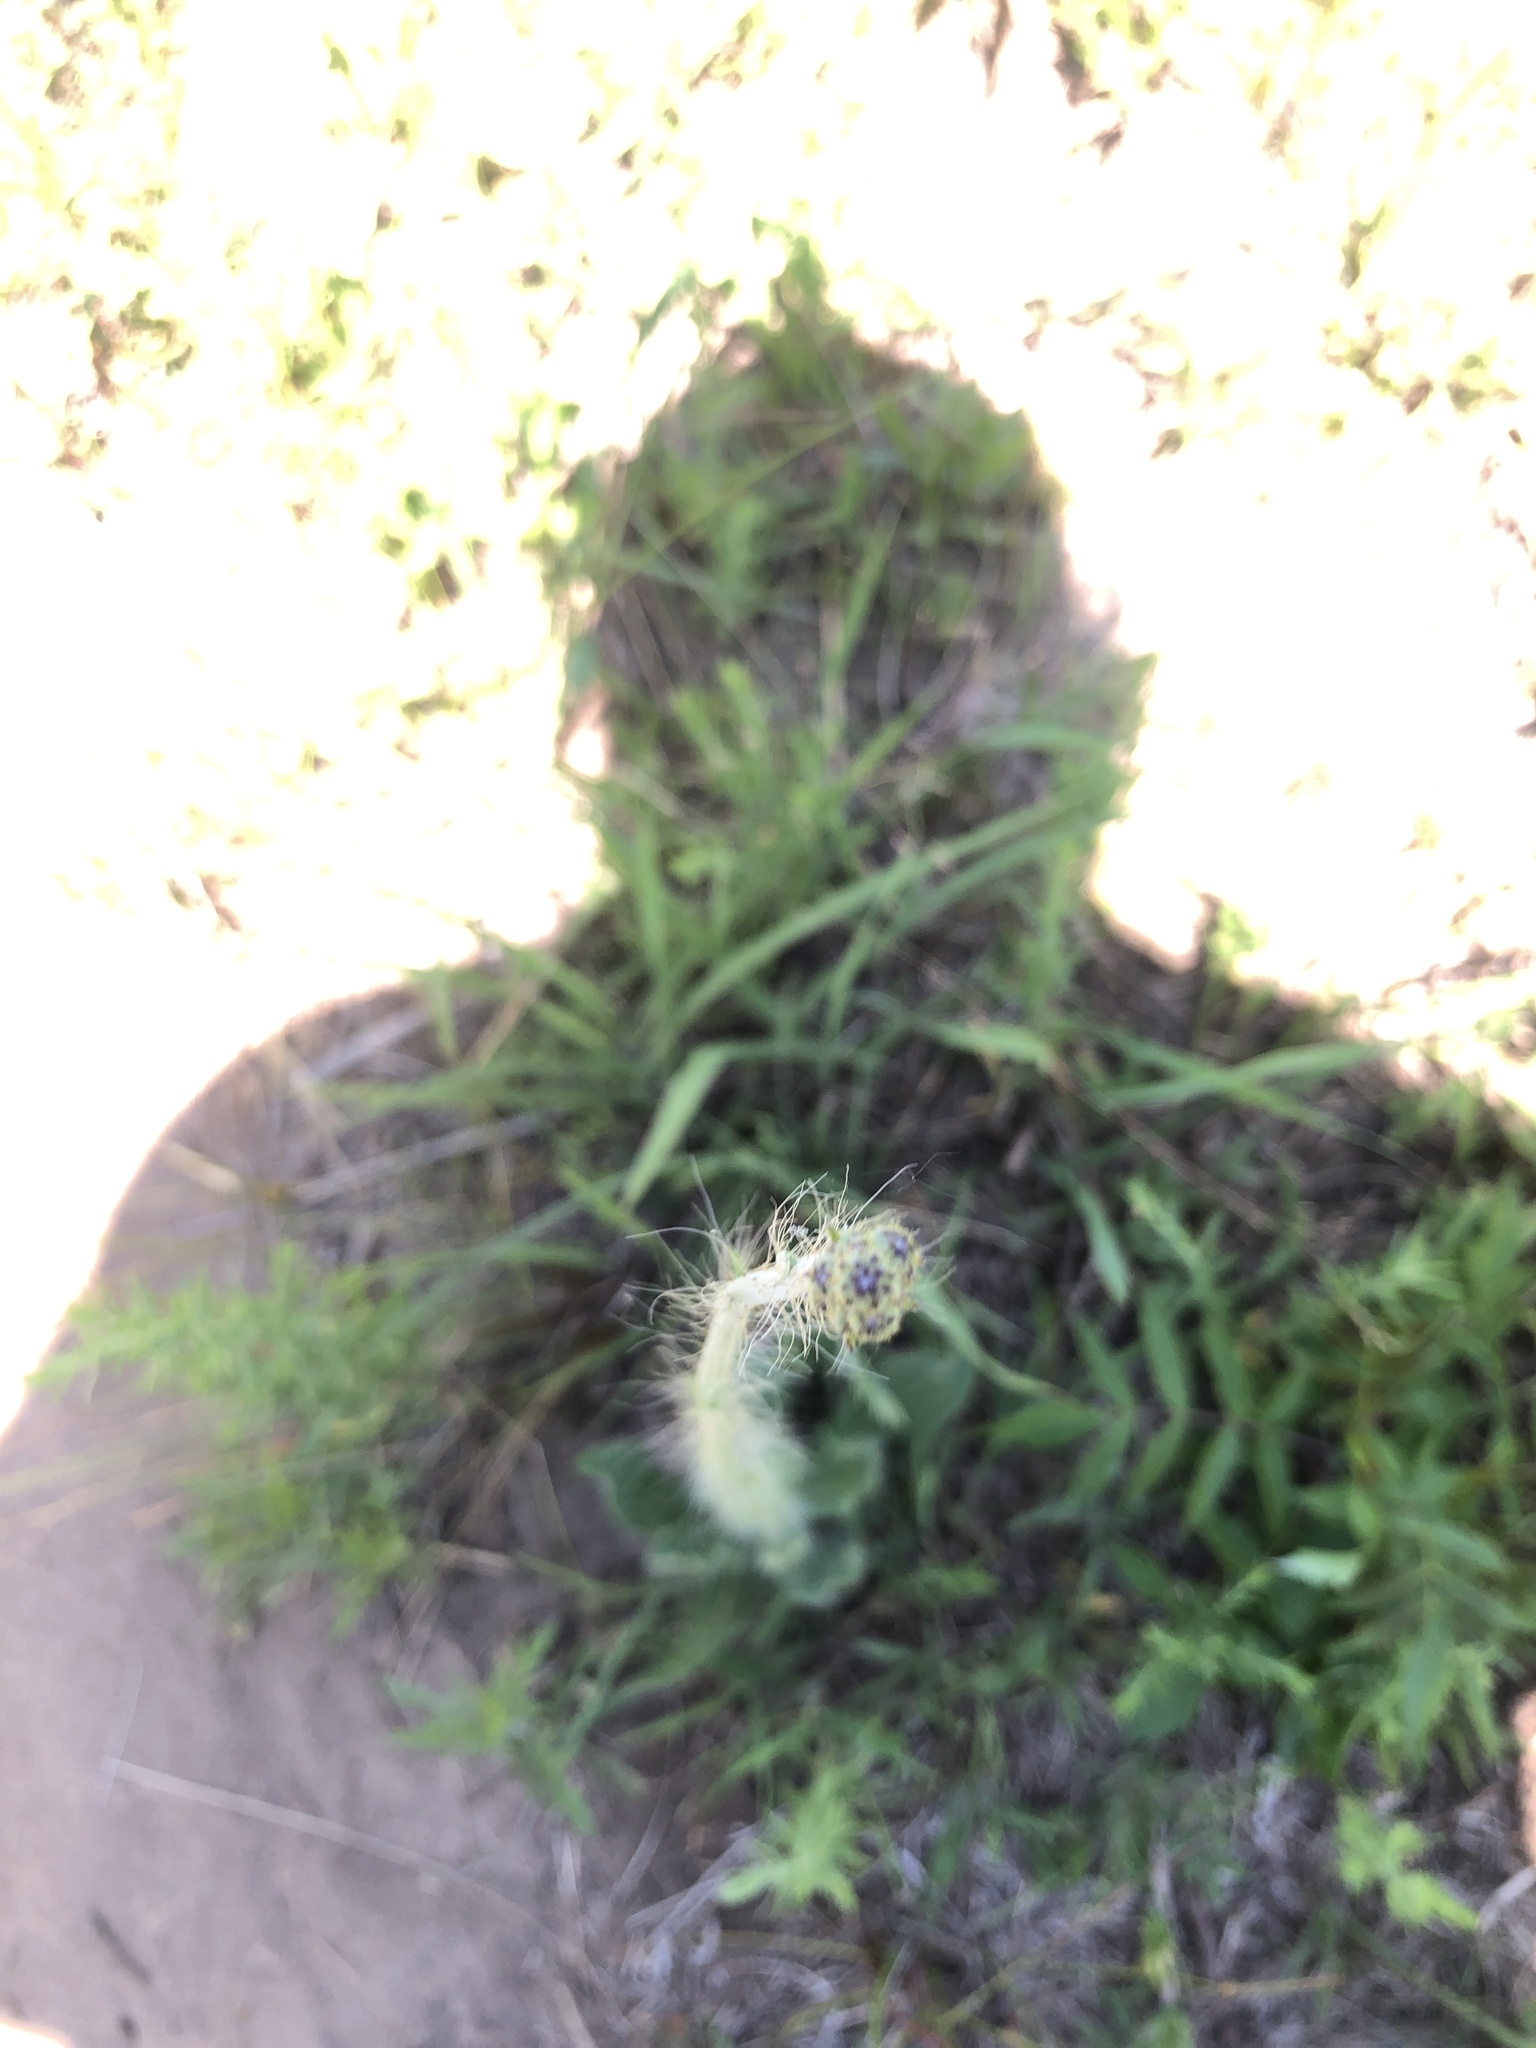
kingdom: Plantae
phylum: Tracheophyta
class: Magnoliopsida
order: Asterales
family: Asteraceae
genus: Hieracium
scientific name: Hieracium longipilum
